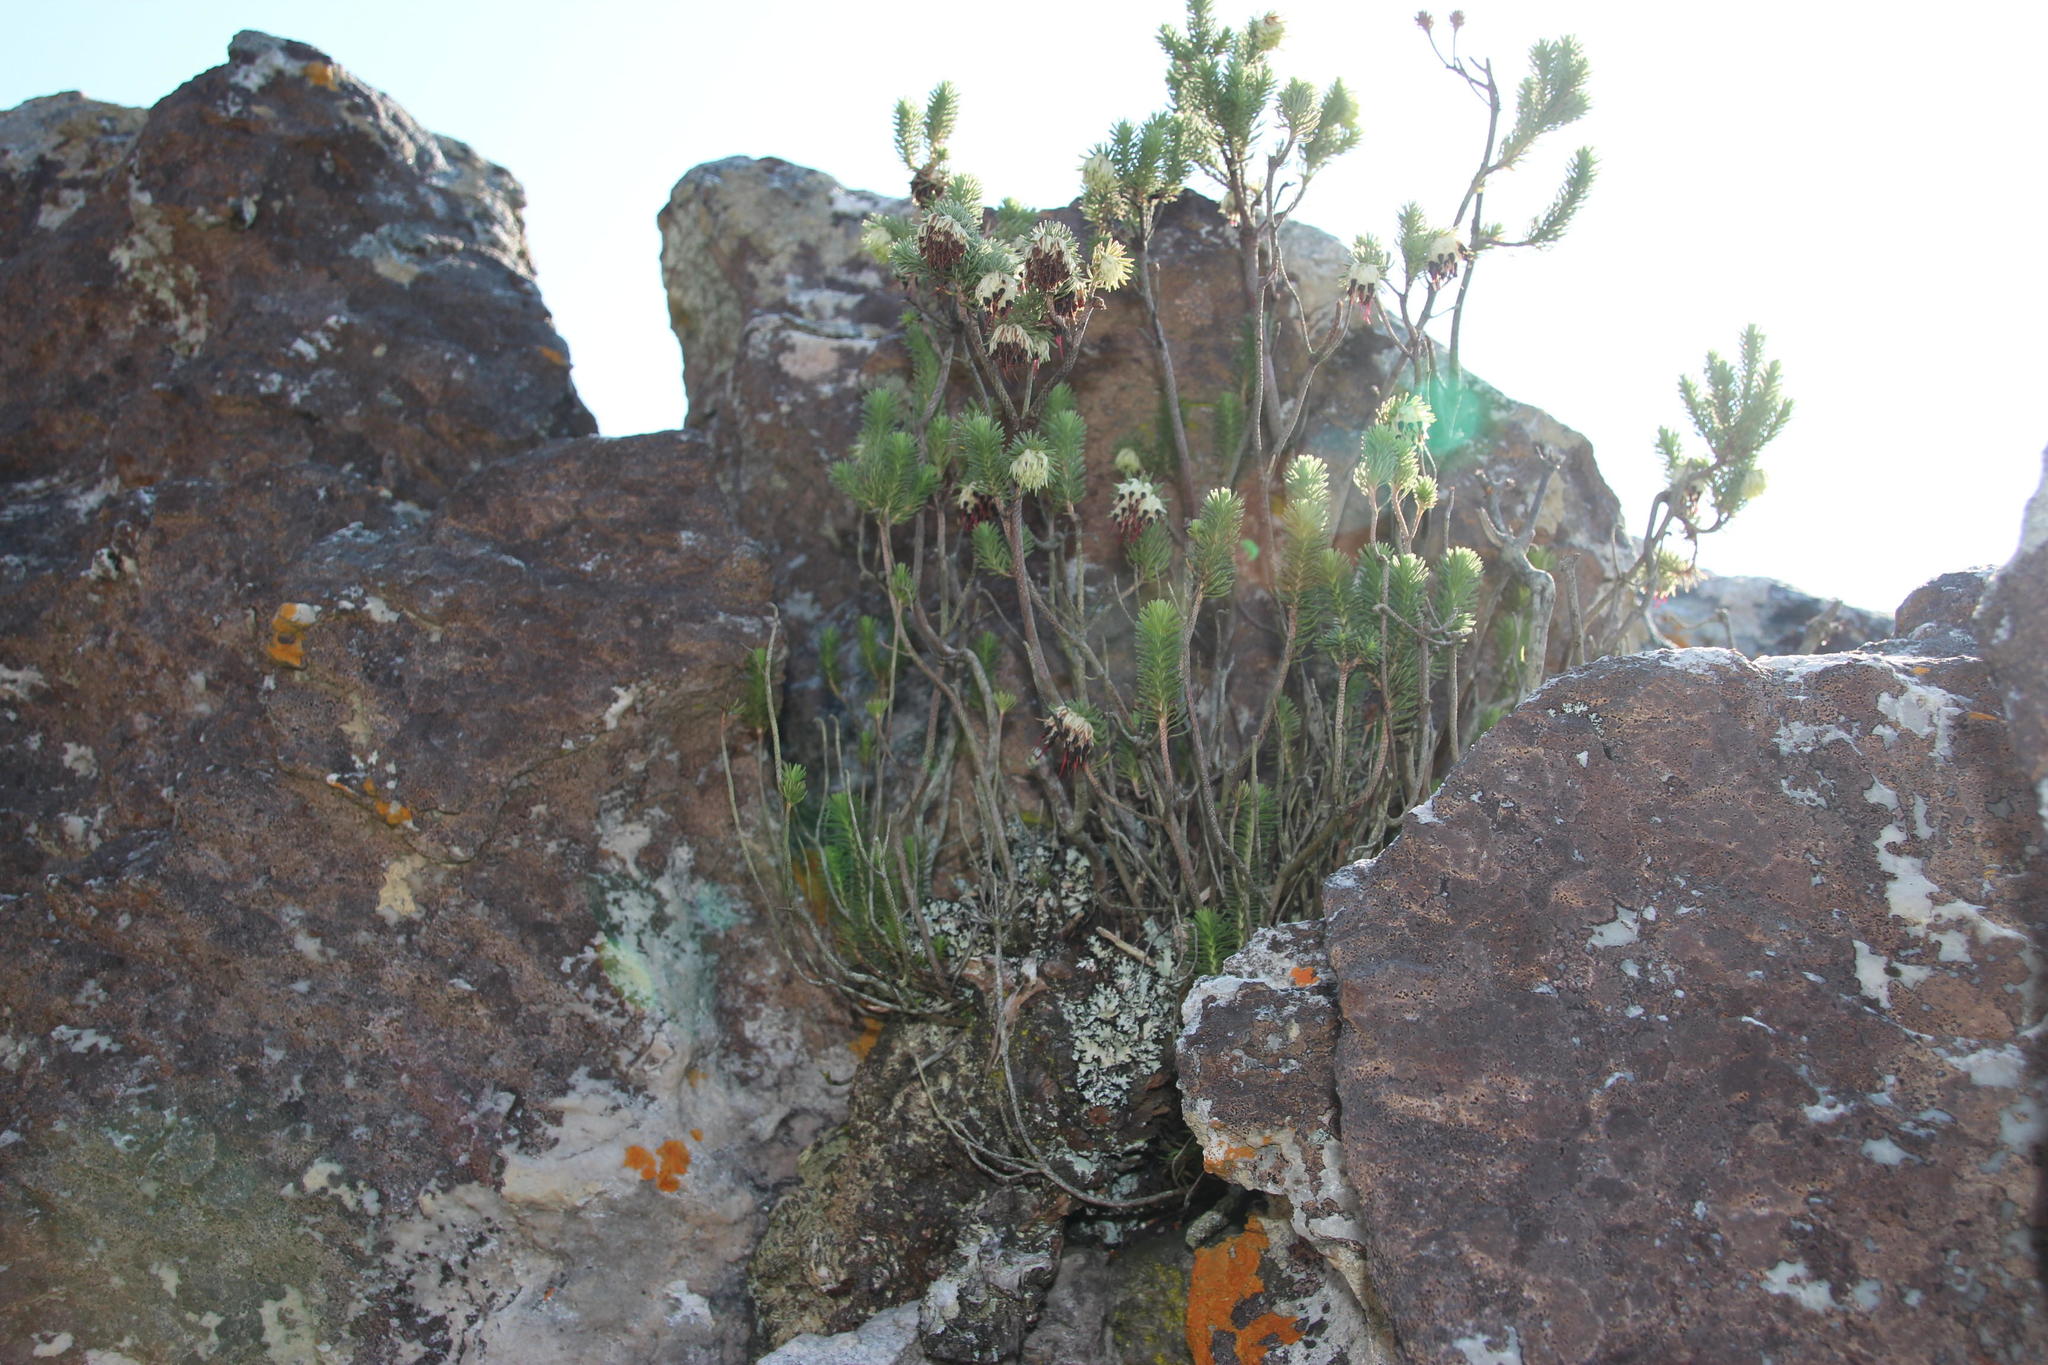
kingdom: Plantae
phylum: Tracheophyta
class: Magnoliopsida
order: Ericales
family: Ericaceae
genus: Erica
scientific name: Erica cumuliflora
